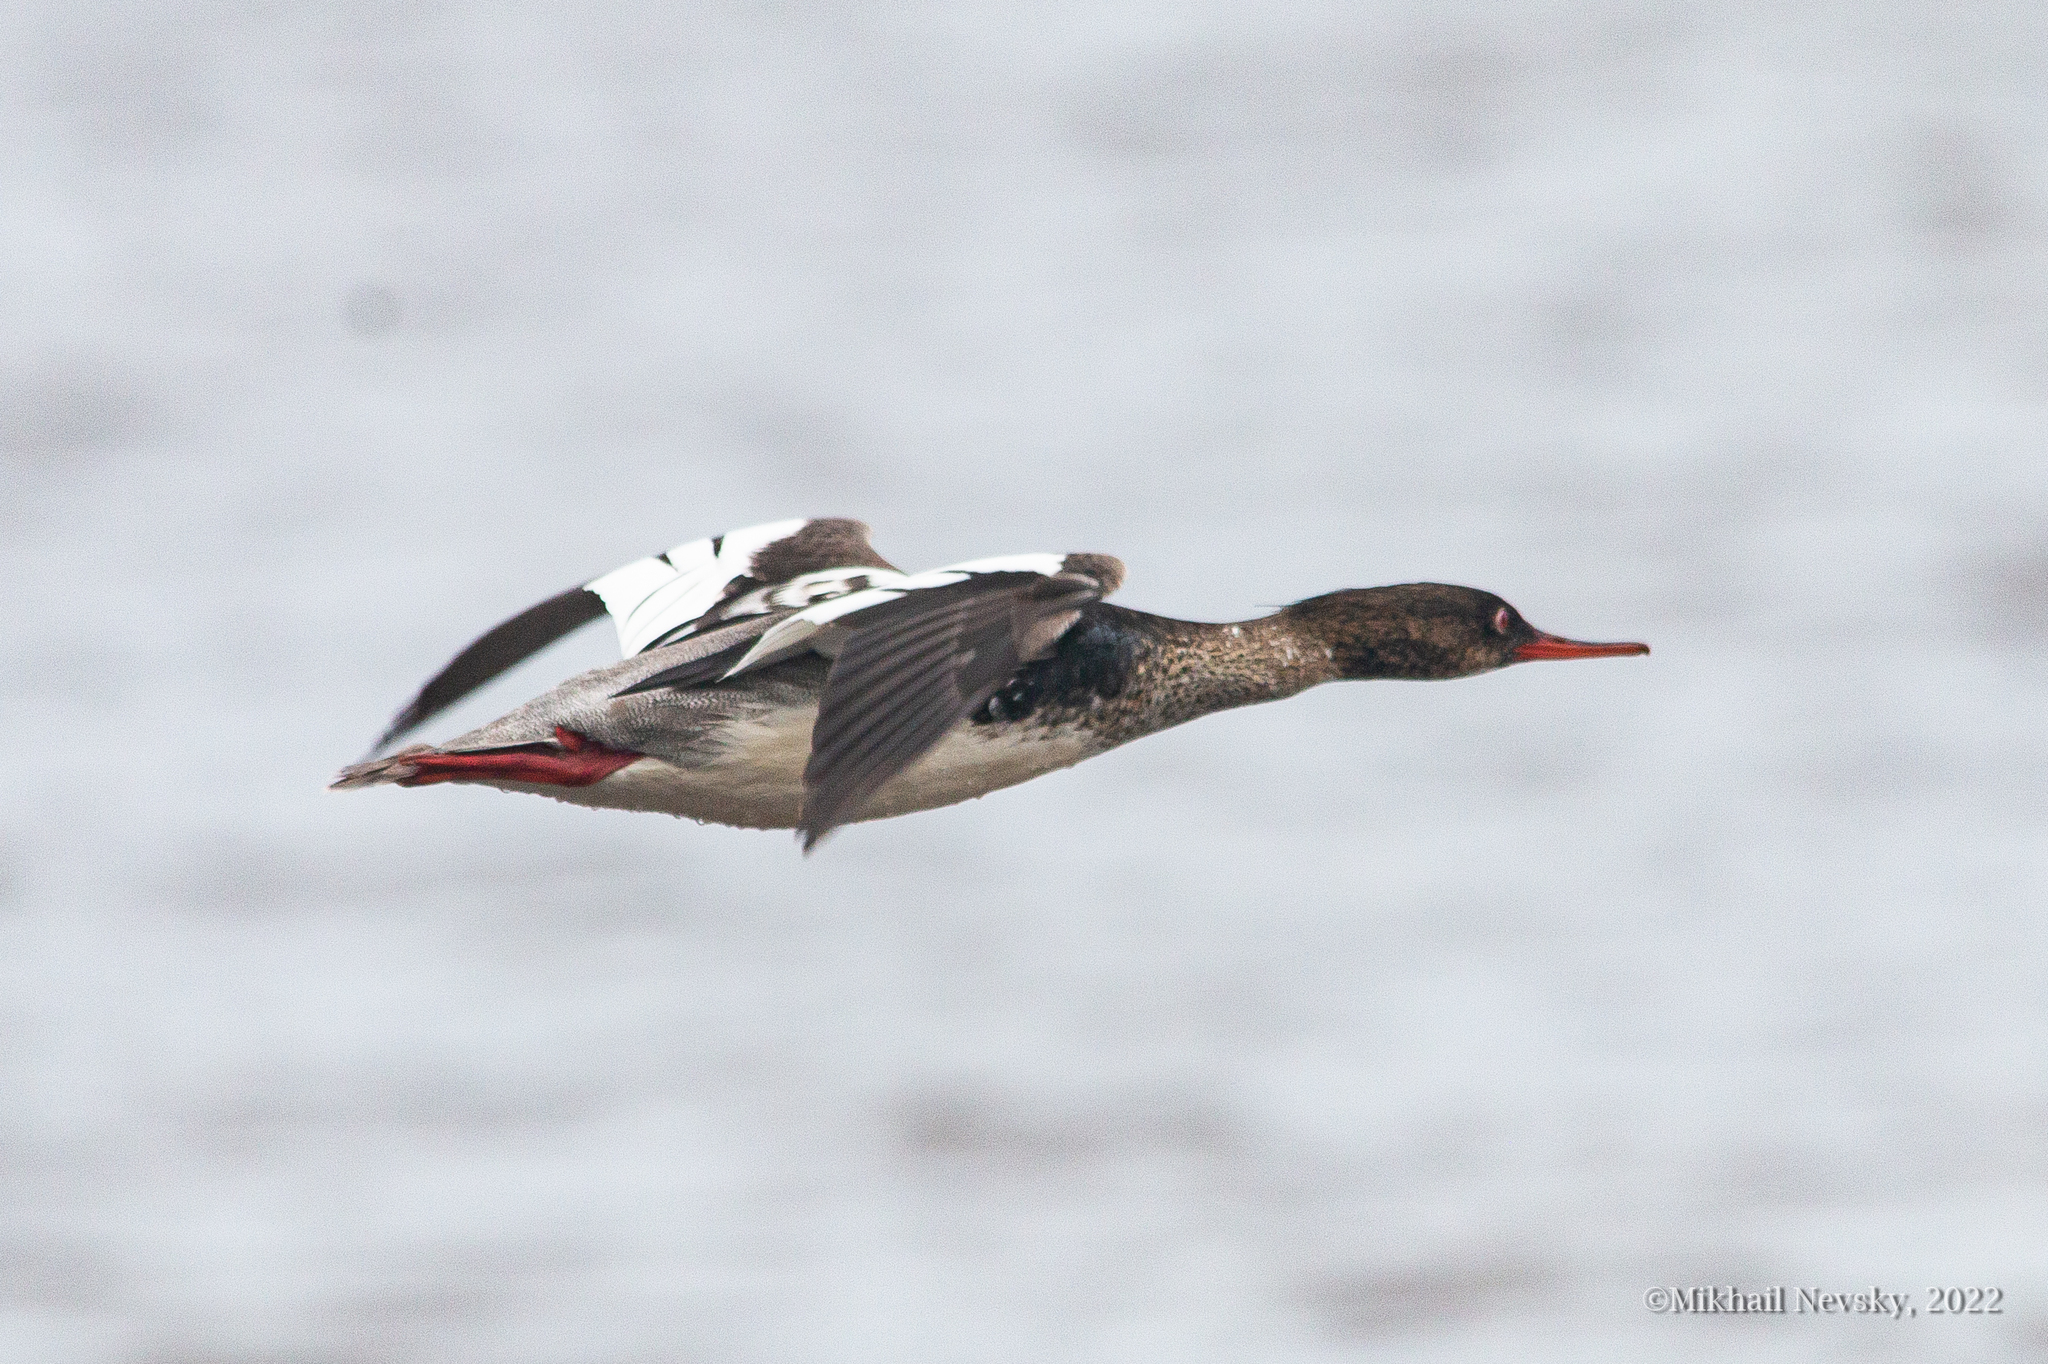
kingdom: Animalia
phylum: Chordata
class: Aves
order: Anseriformes
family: Anatidae
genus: Mergus
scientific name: Mergus serrator
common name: Red-breasted merganser
